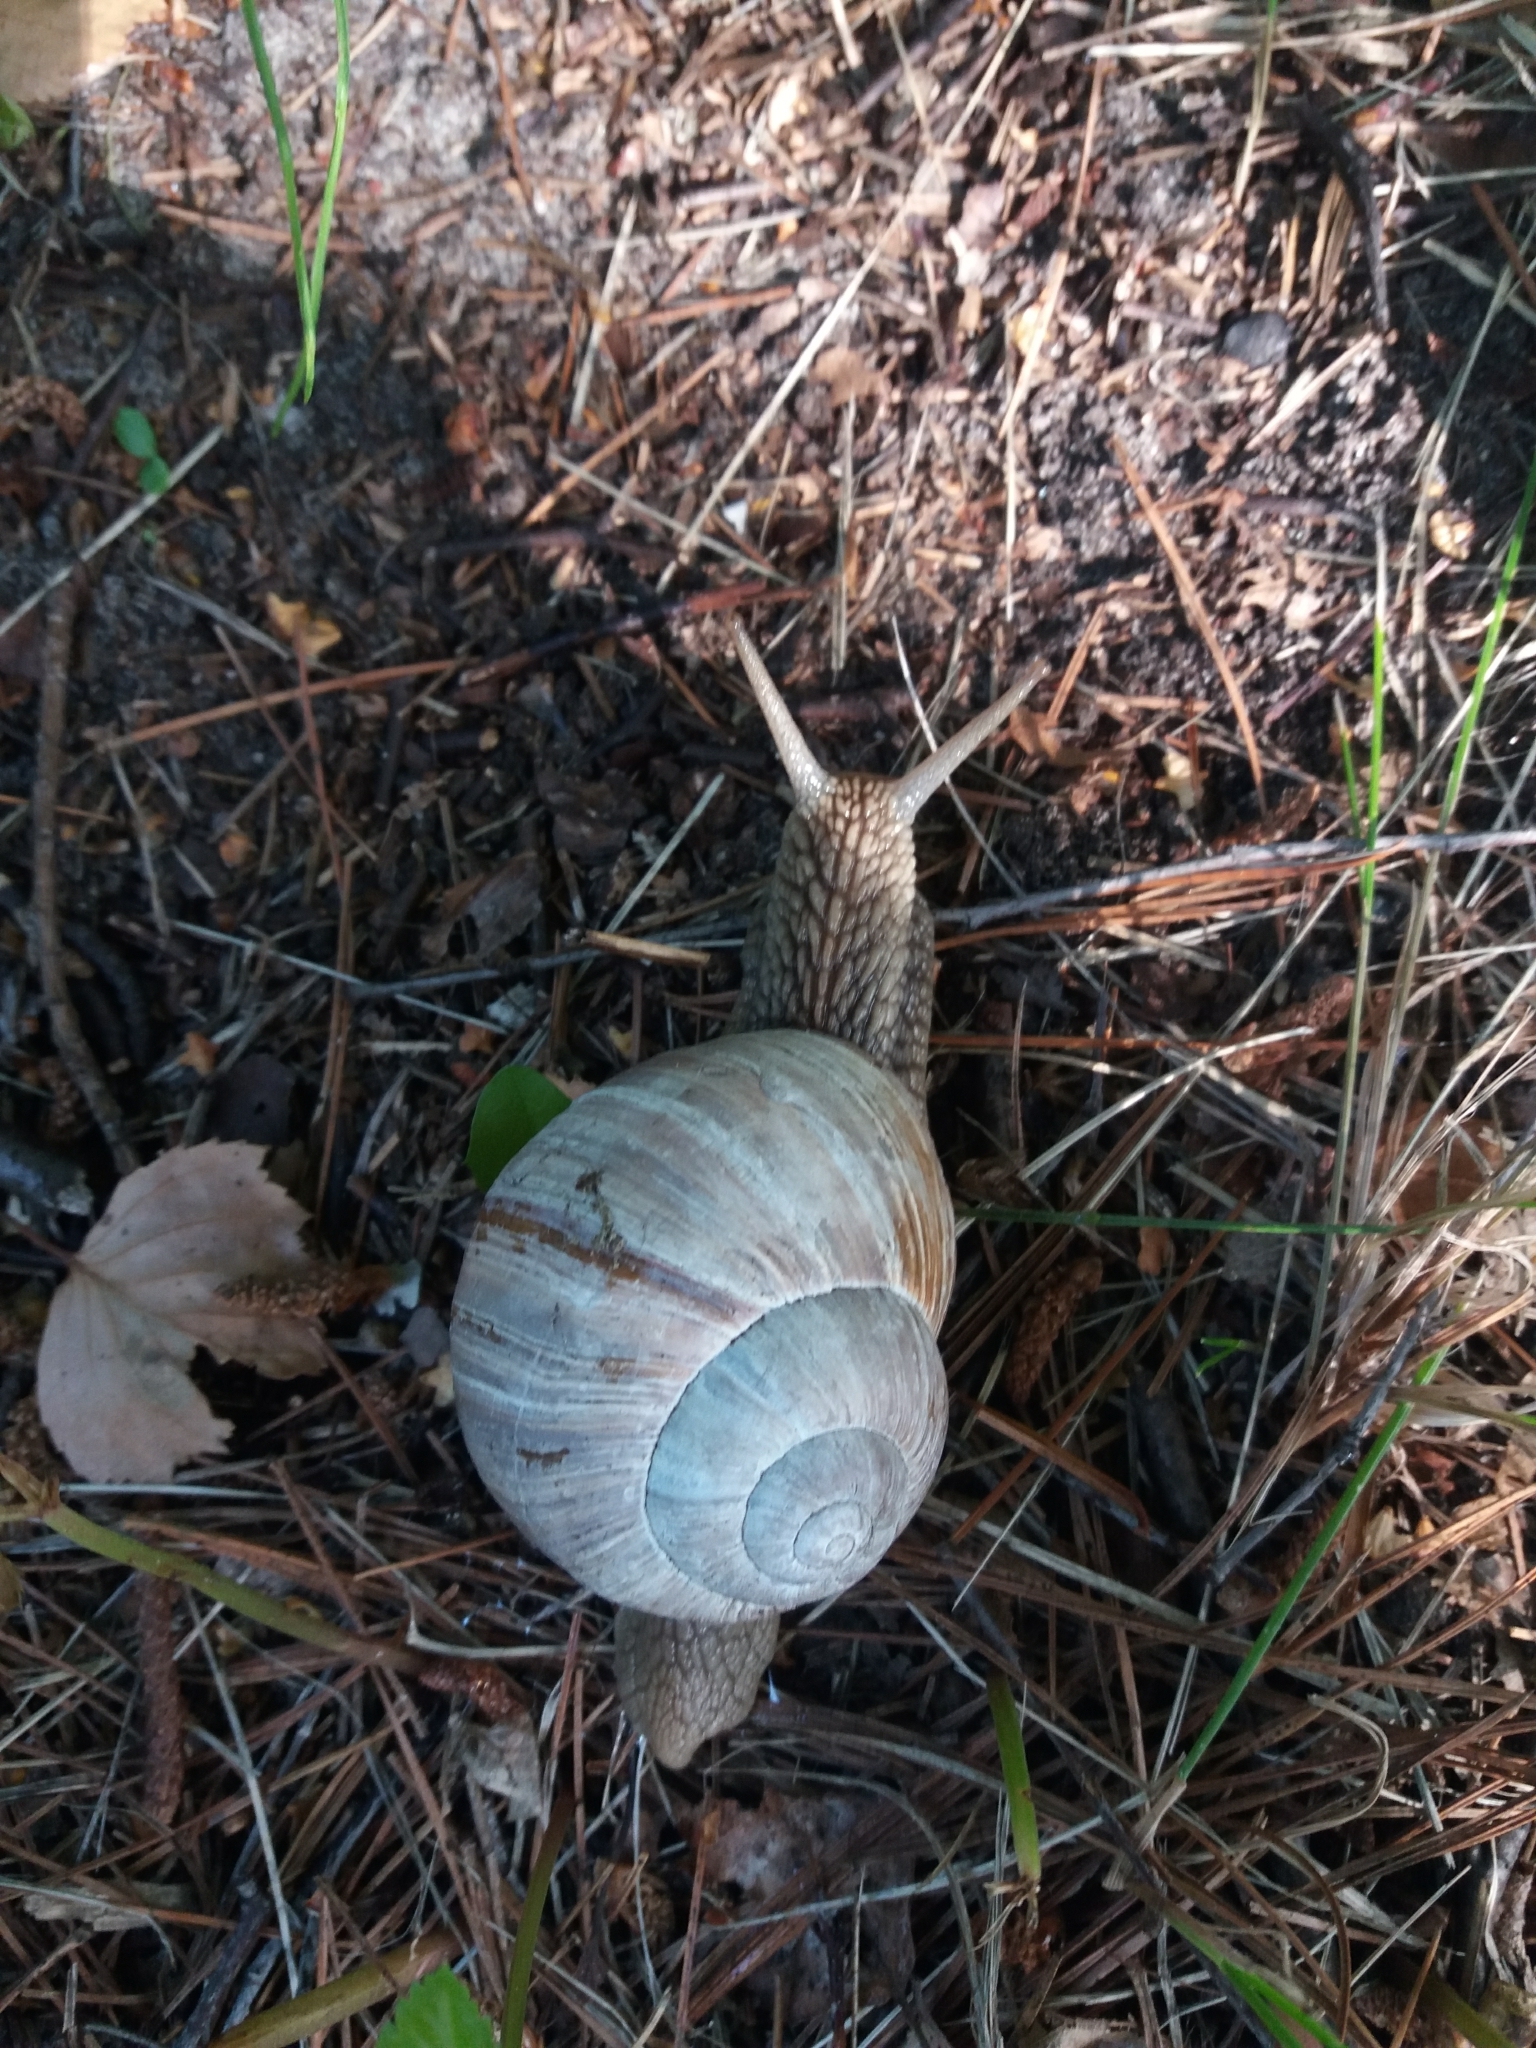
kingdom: Animalia
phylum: Mollusca
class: Gastropoda
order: Stylommatophora
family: Helicidae
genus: Helix
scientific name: Helix pomatia
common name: Roman snail
